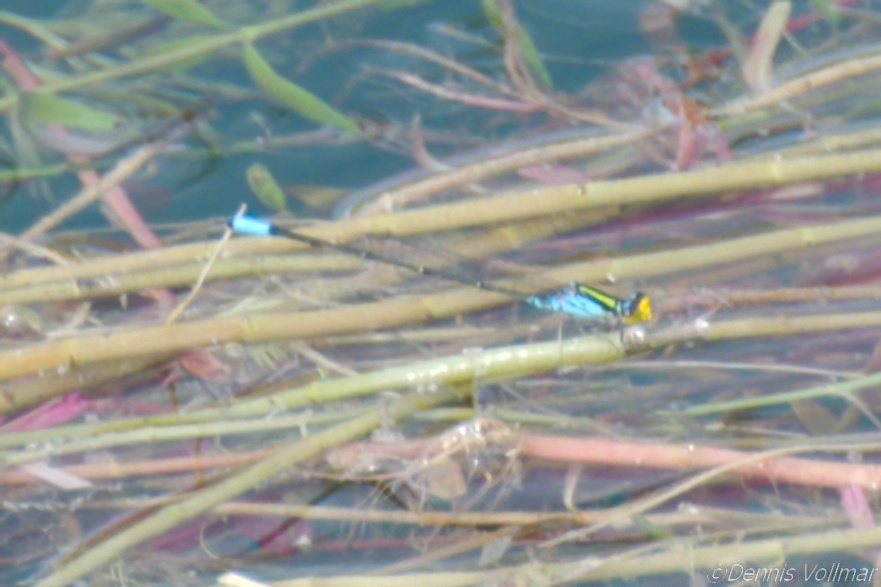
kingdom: Animalia
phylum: Arthropoda
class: Insecta
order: Odonata
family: Coenagrionidae
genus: Neoerythromma
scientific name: Neoerythromma cultellatum
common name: Caribbean yellowface
